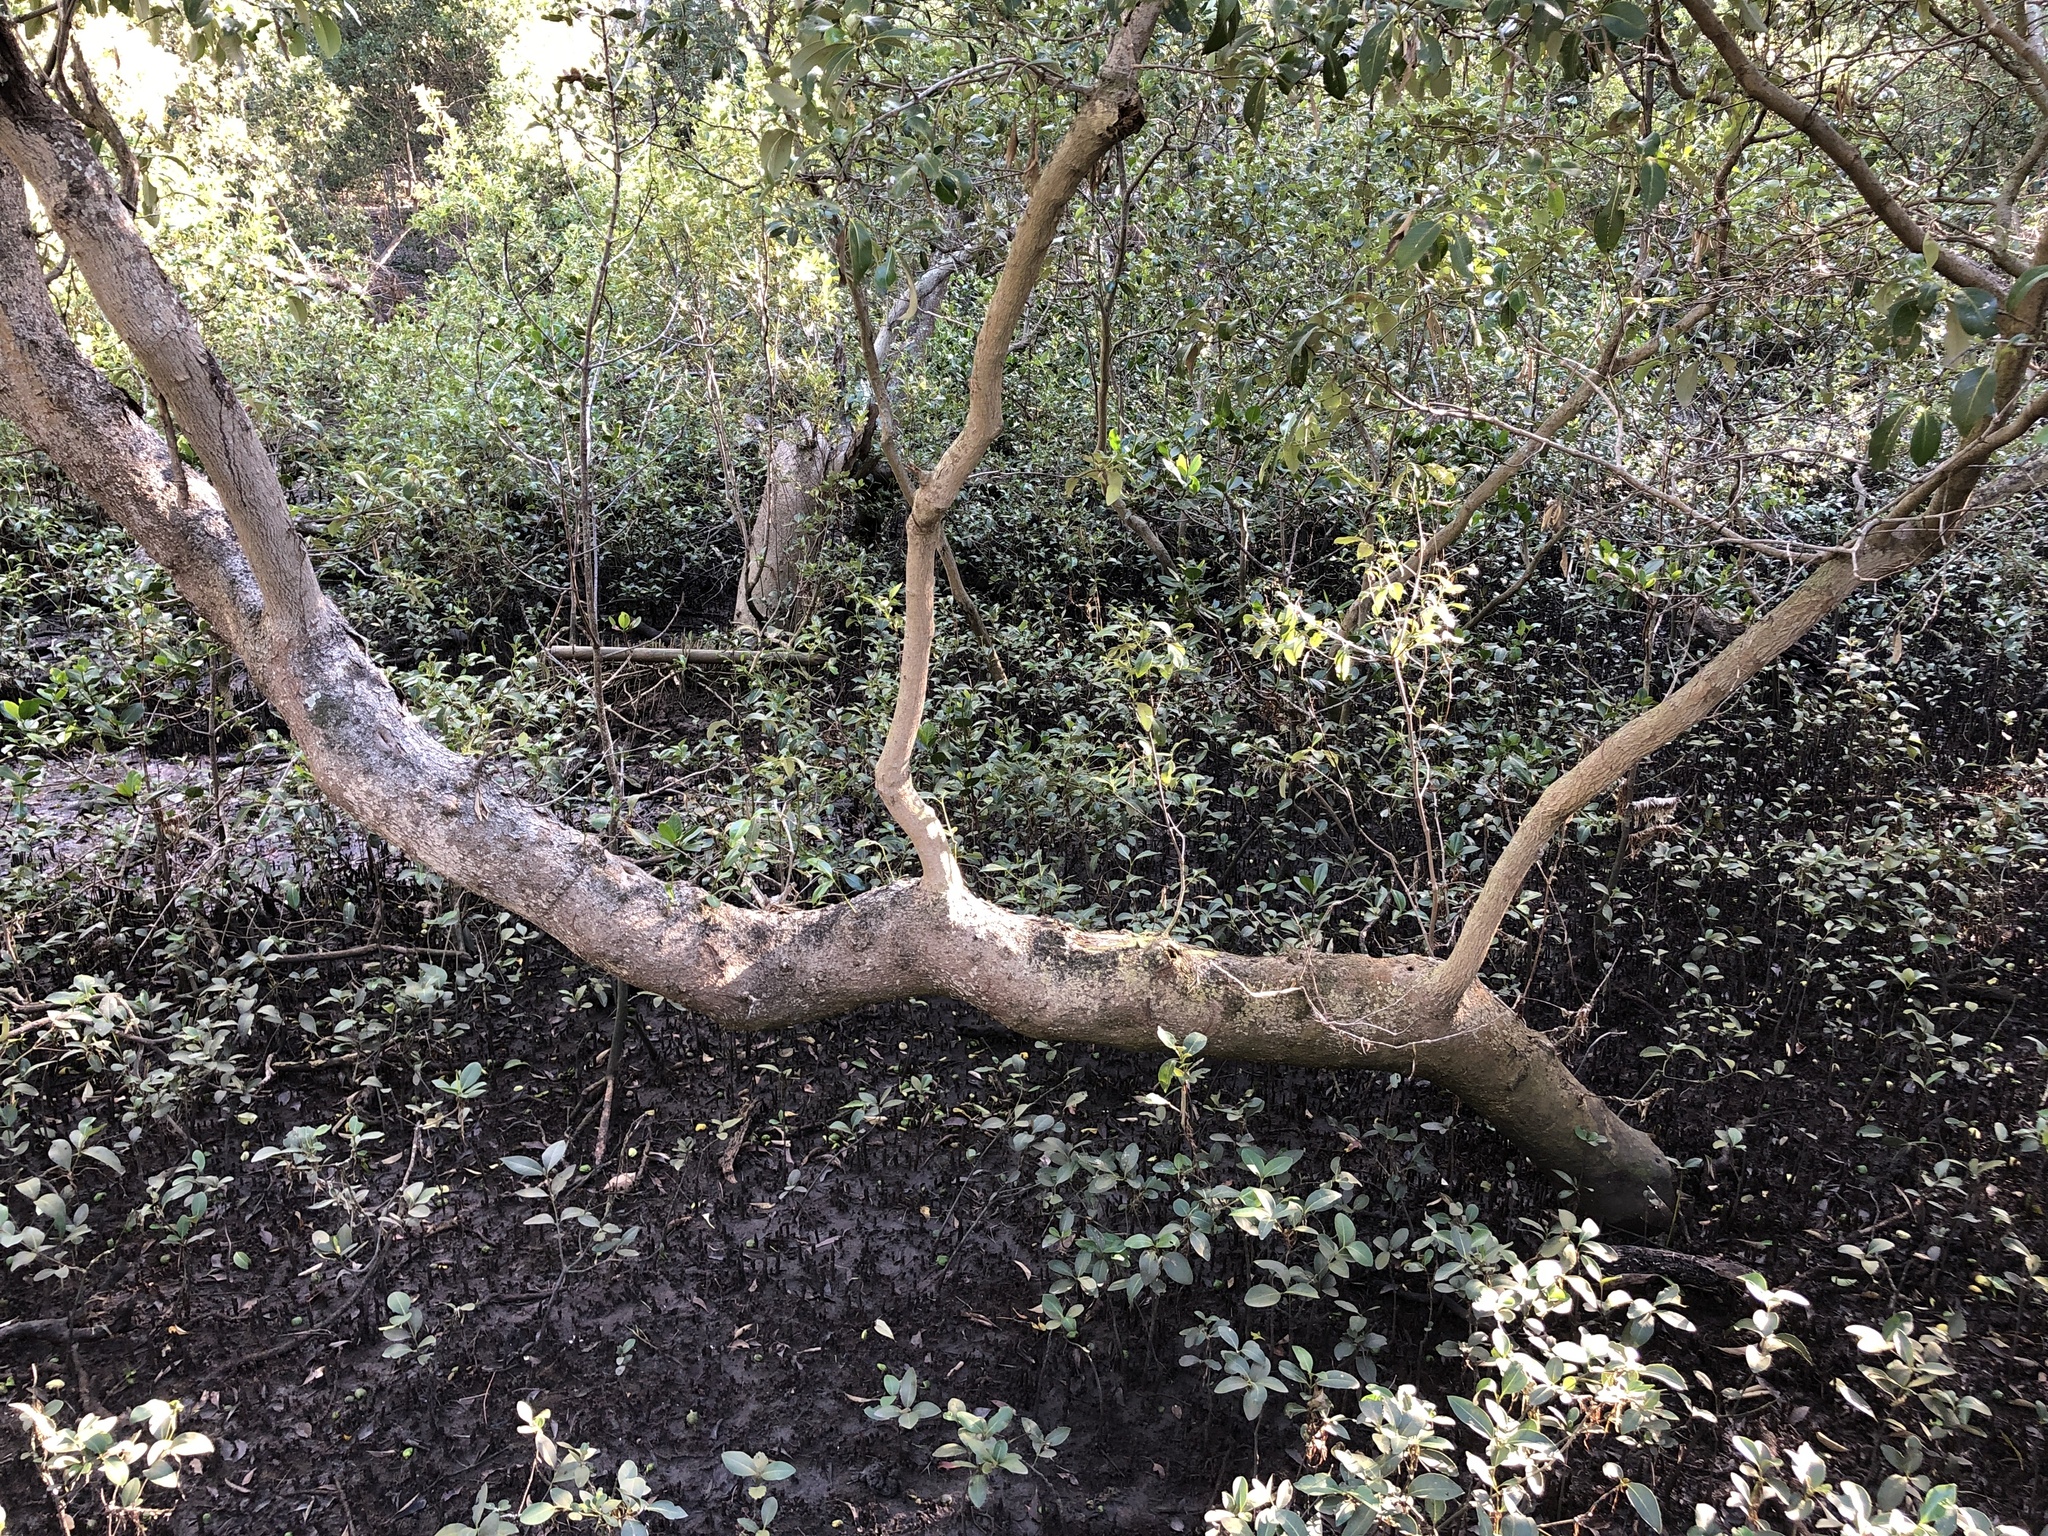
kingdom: Plantae
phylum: Tracheophyta
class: Magnoliopsida
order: Lamiales
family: Acanthaceae
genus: Avicennia
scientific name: Avicennia marina
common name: Gray mangrove
